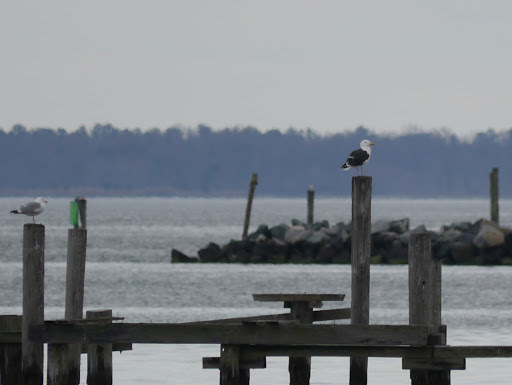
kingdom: Animalia
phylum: Chordata
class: Aves
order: Charadriiformes
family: Laridae
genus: Larus
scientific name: Larus marinus
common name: Great black-backed gull
